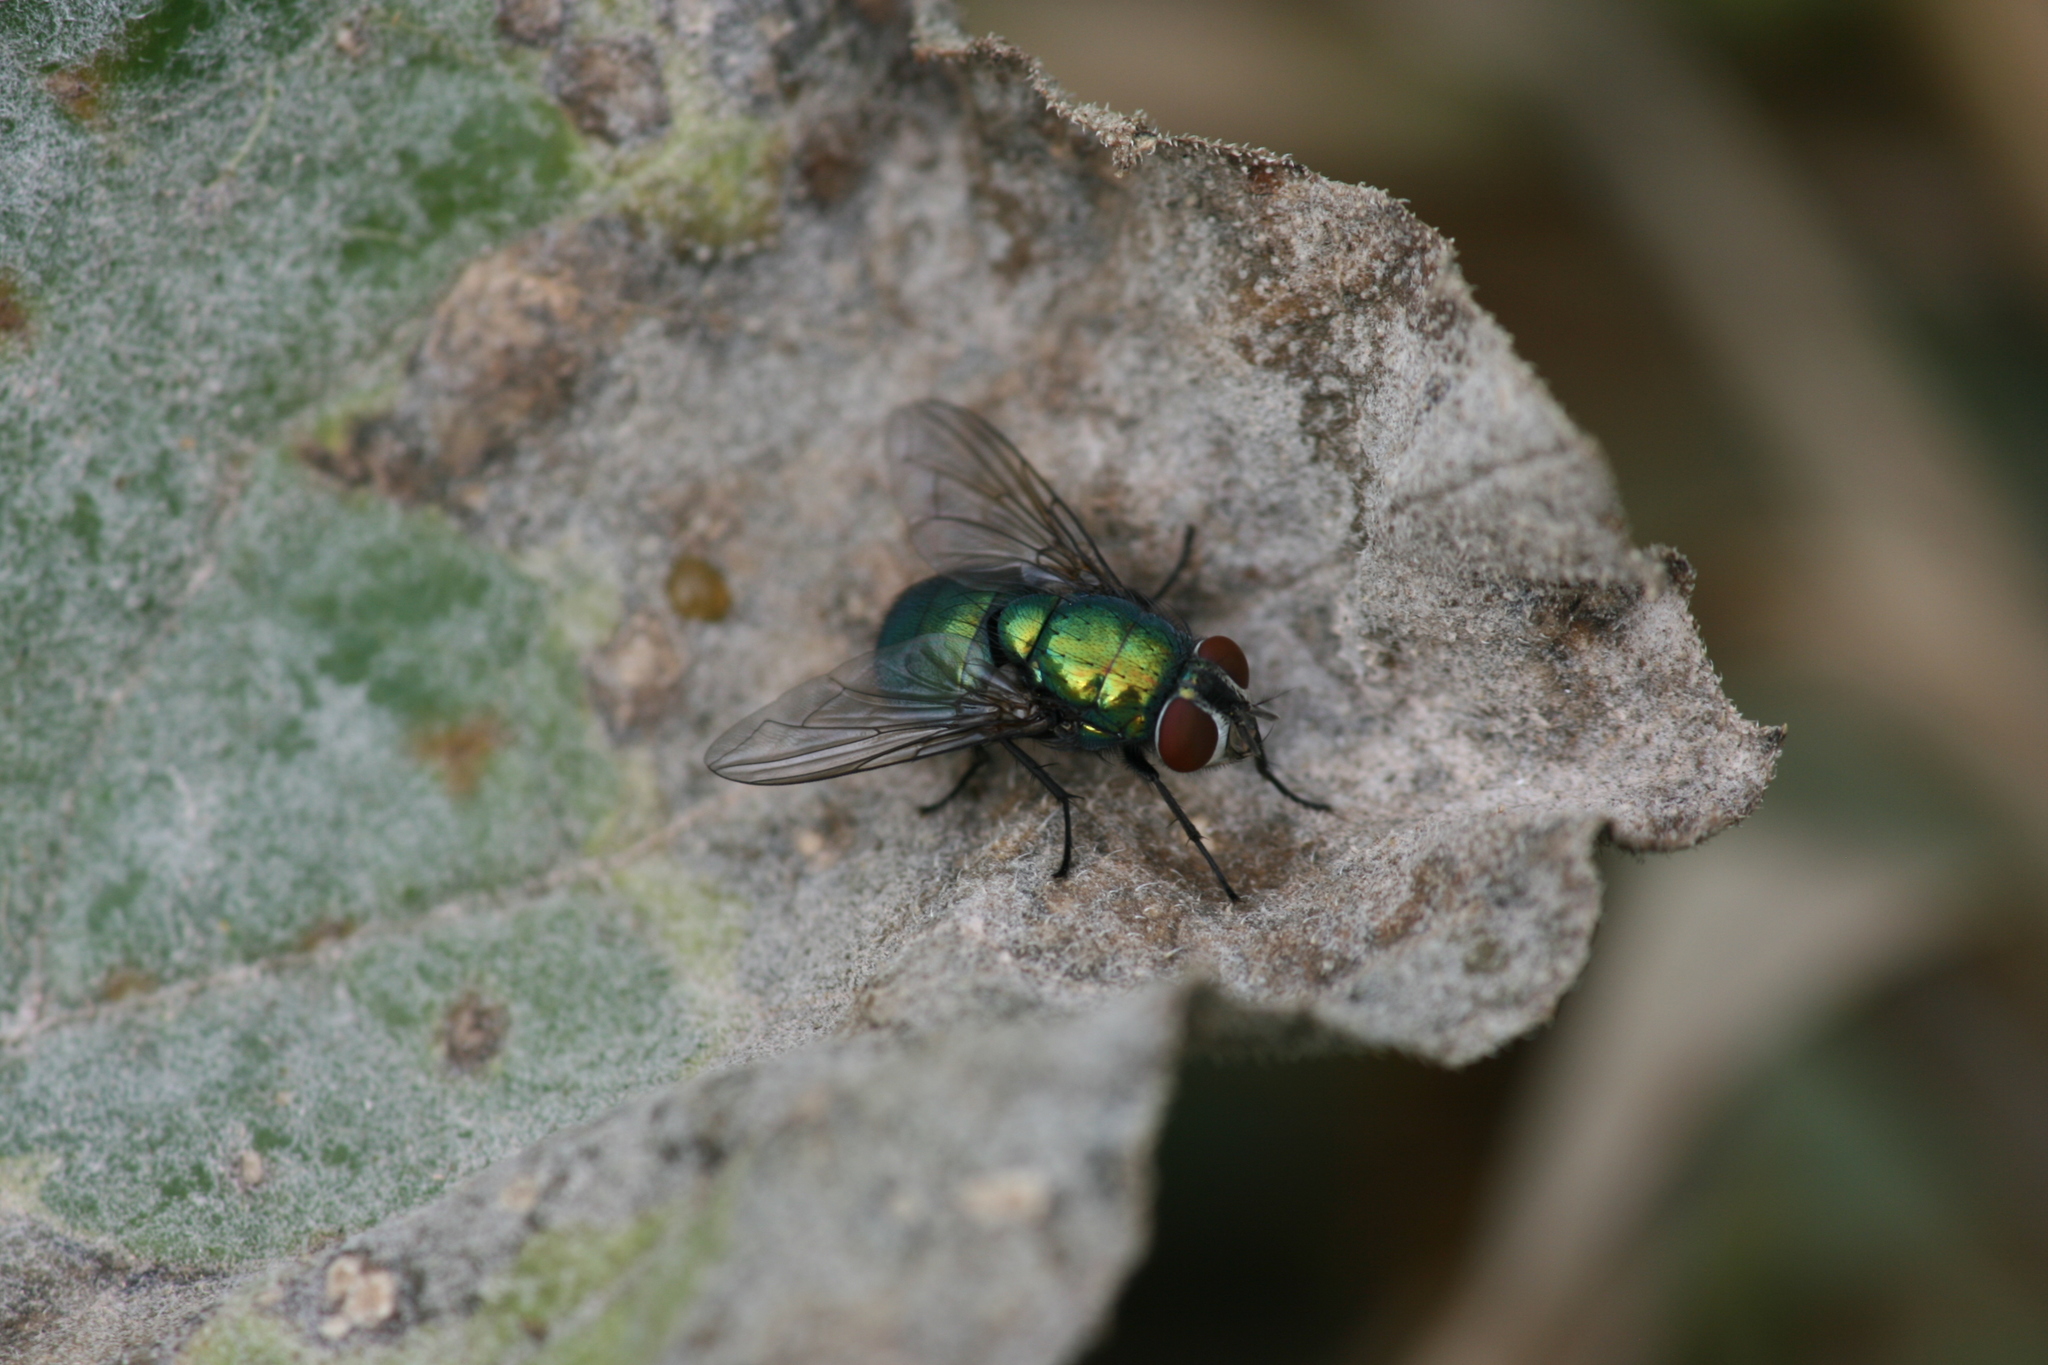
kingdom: Animalia
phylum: Arthropoda
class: Insecta
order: Diptera
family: Calliphoridae
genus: Lucilia
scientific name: Lucilia caesar
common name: Blow fly
